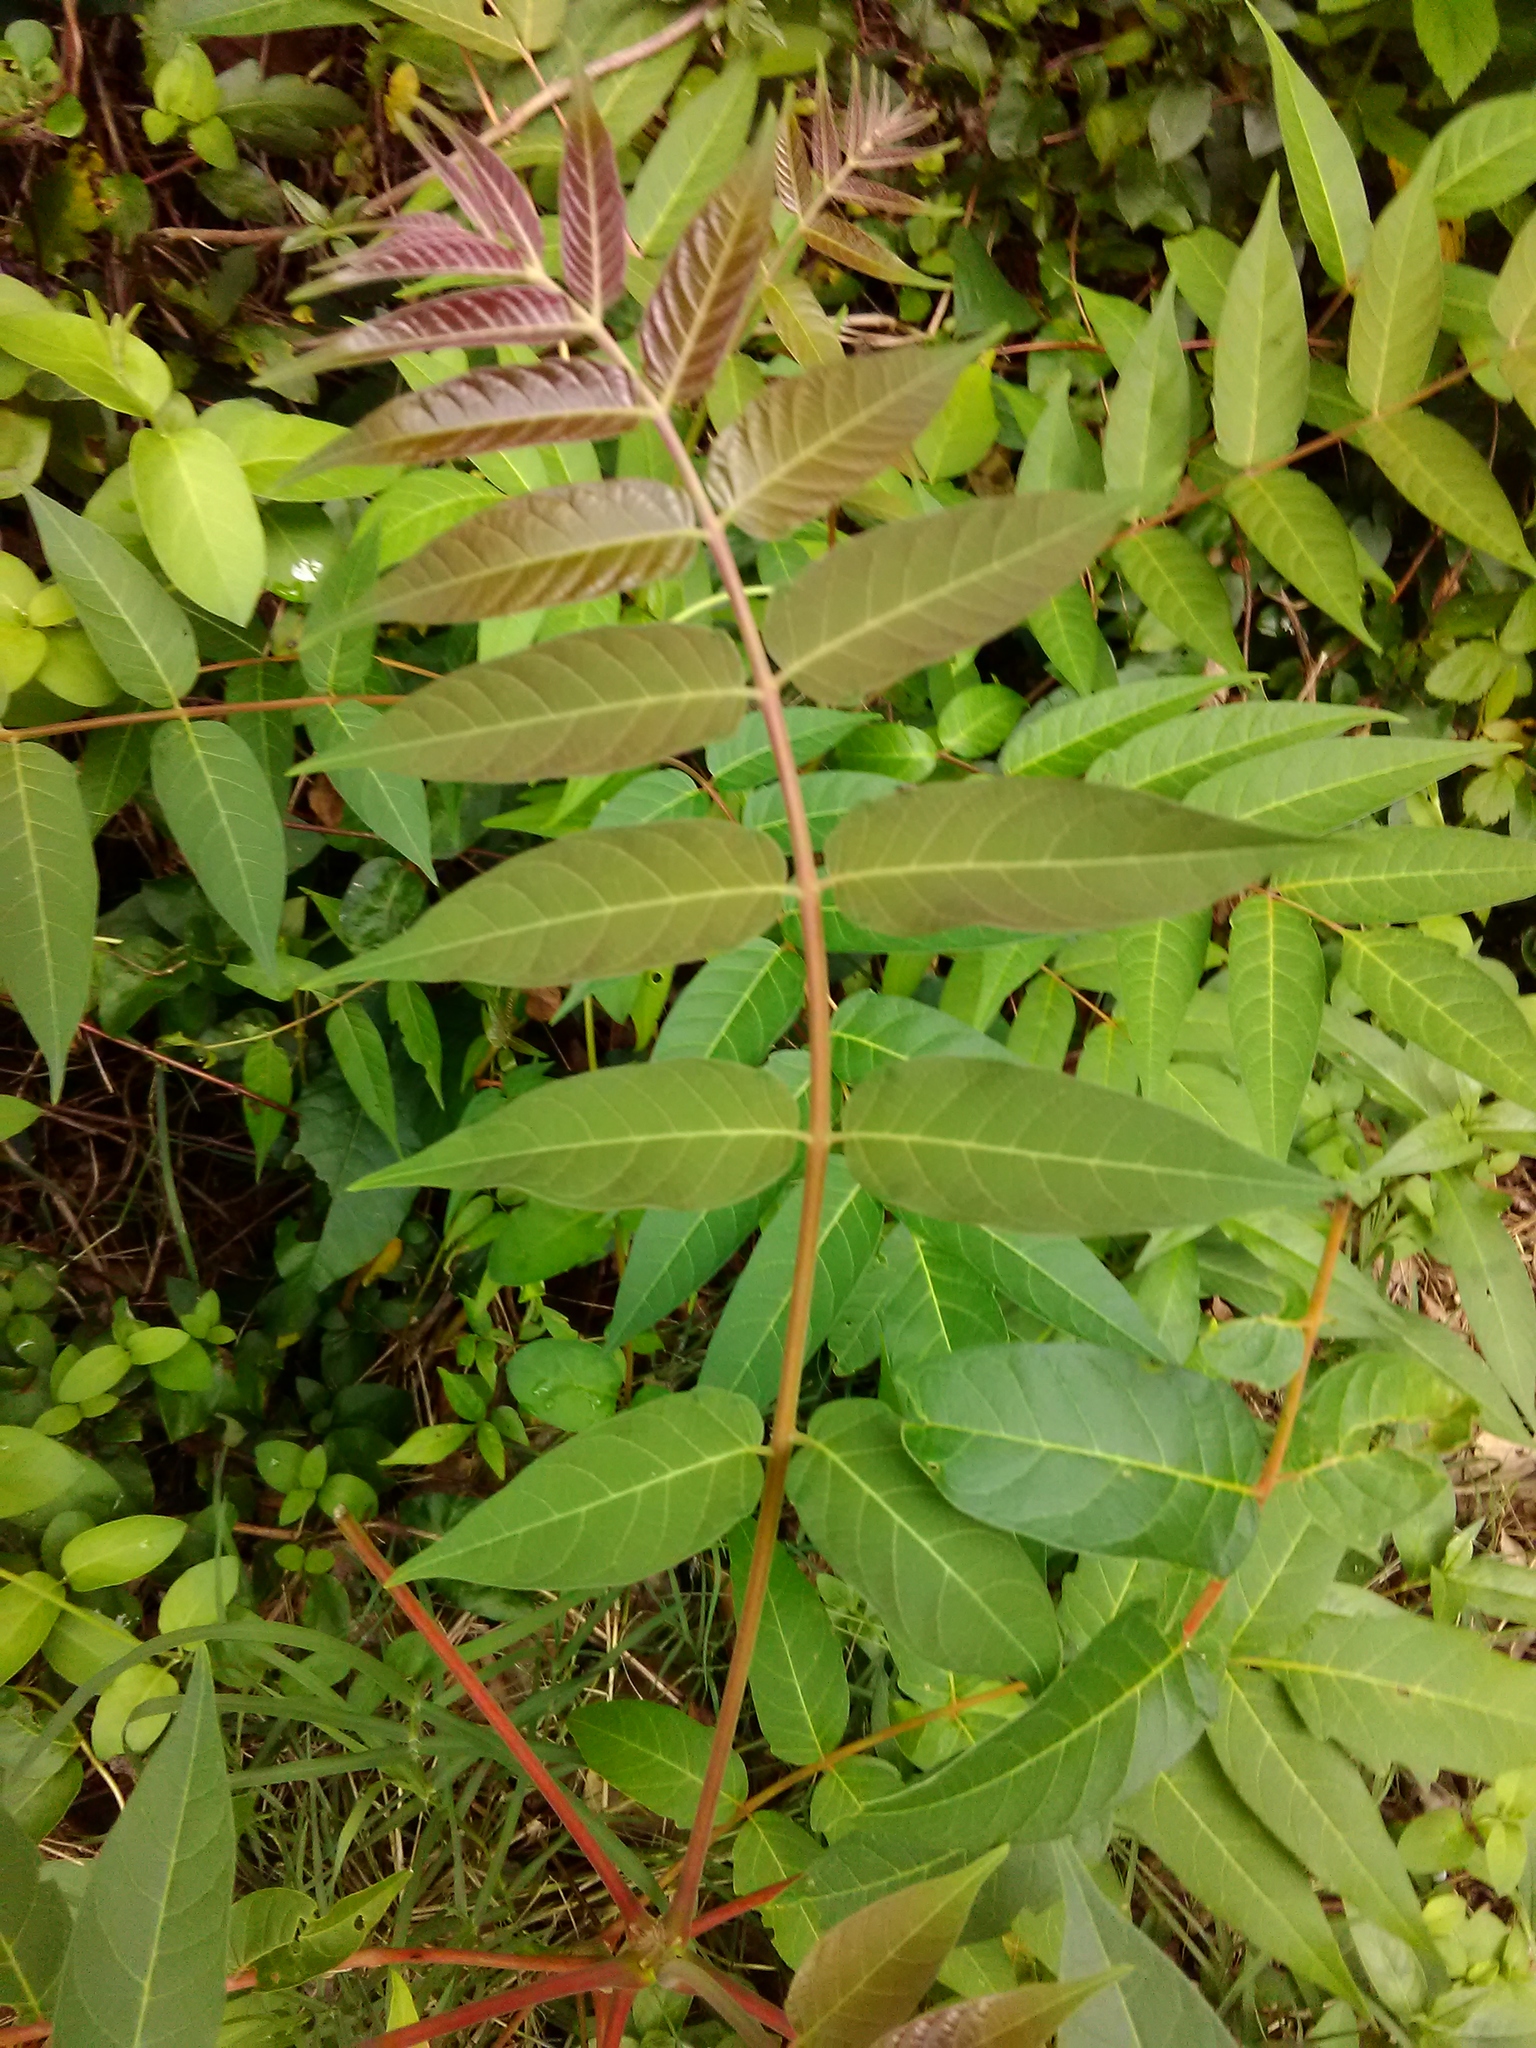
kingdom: Plantae
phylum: Tracheophyta
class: Magnoliopsida
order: Sapindales
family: Simaroubaceae
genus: Ailanthus
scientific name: Ailanthus altissima
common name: Tree-of-heaven
